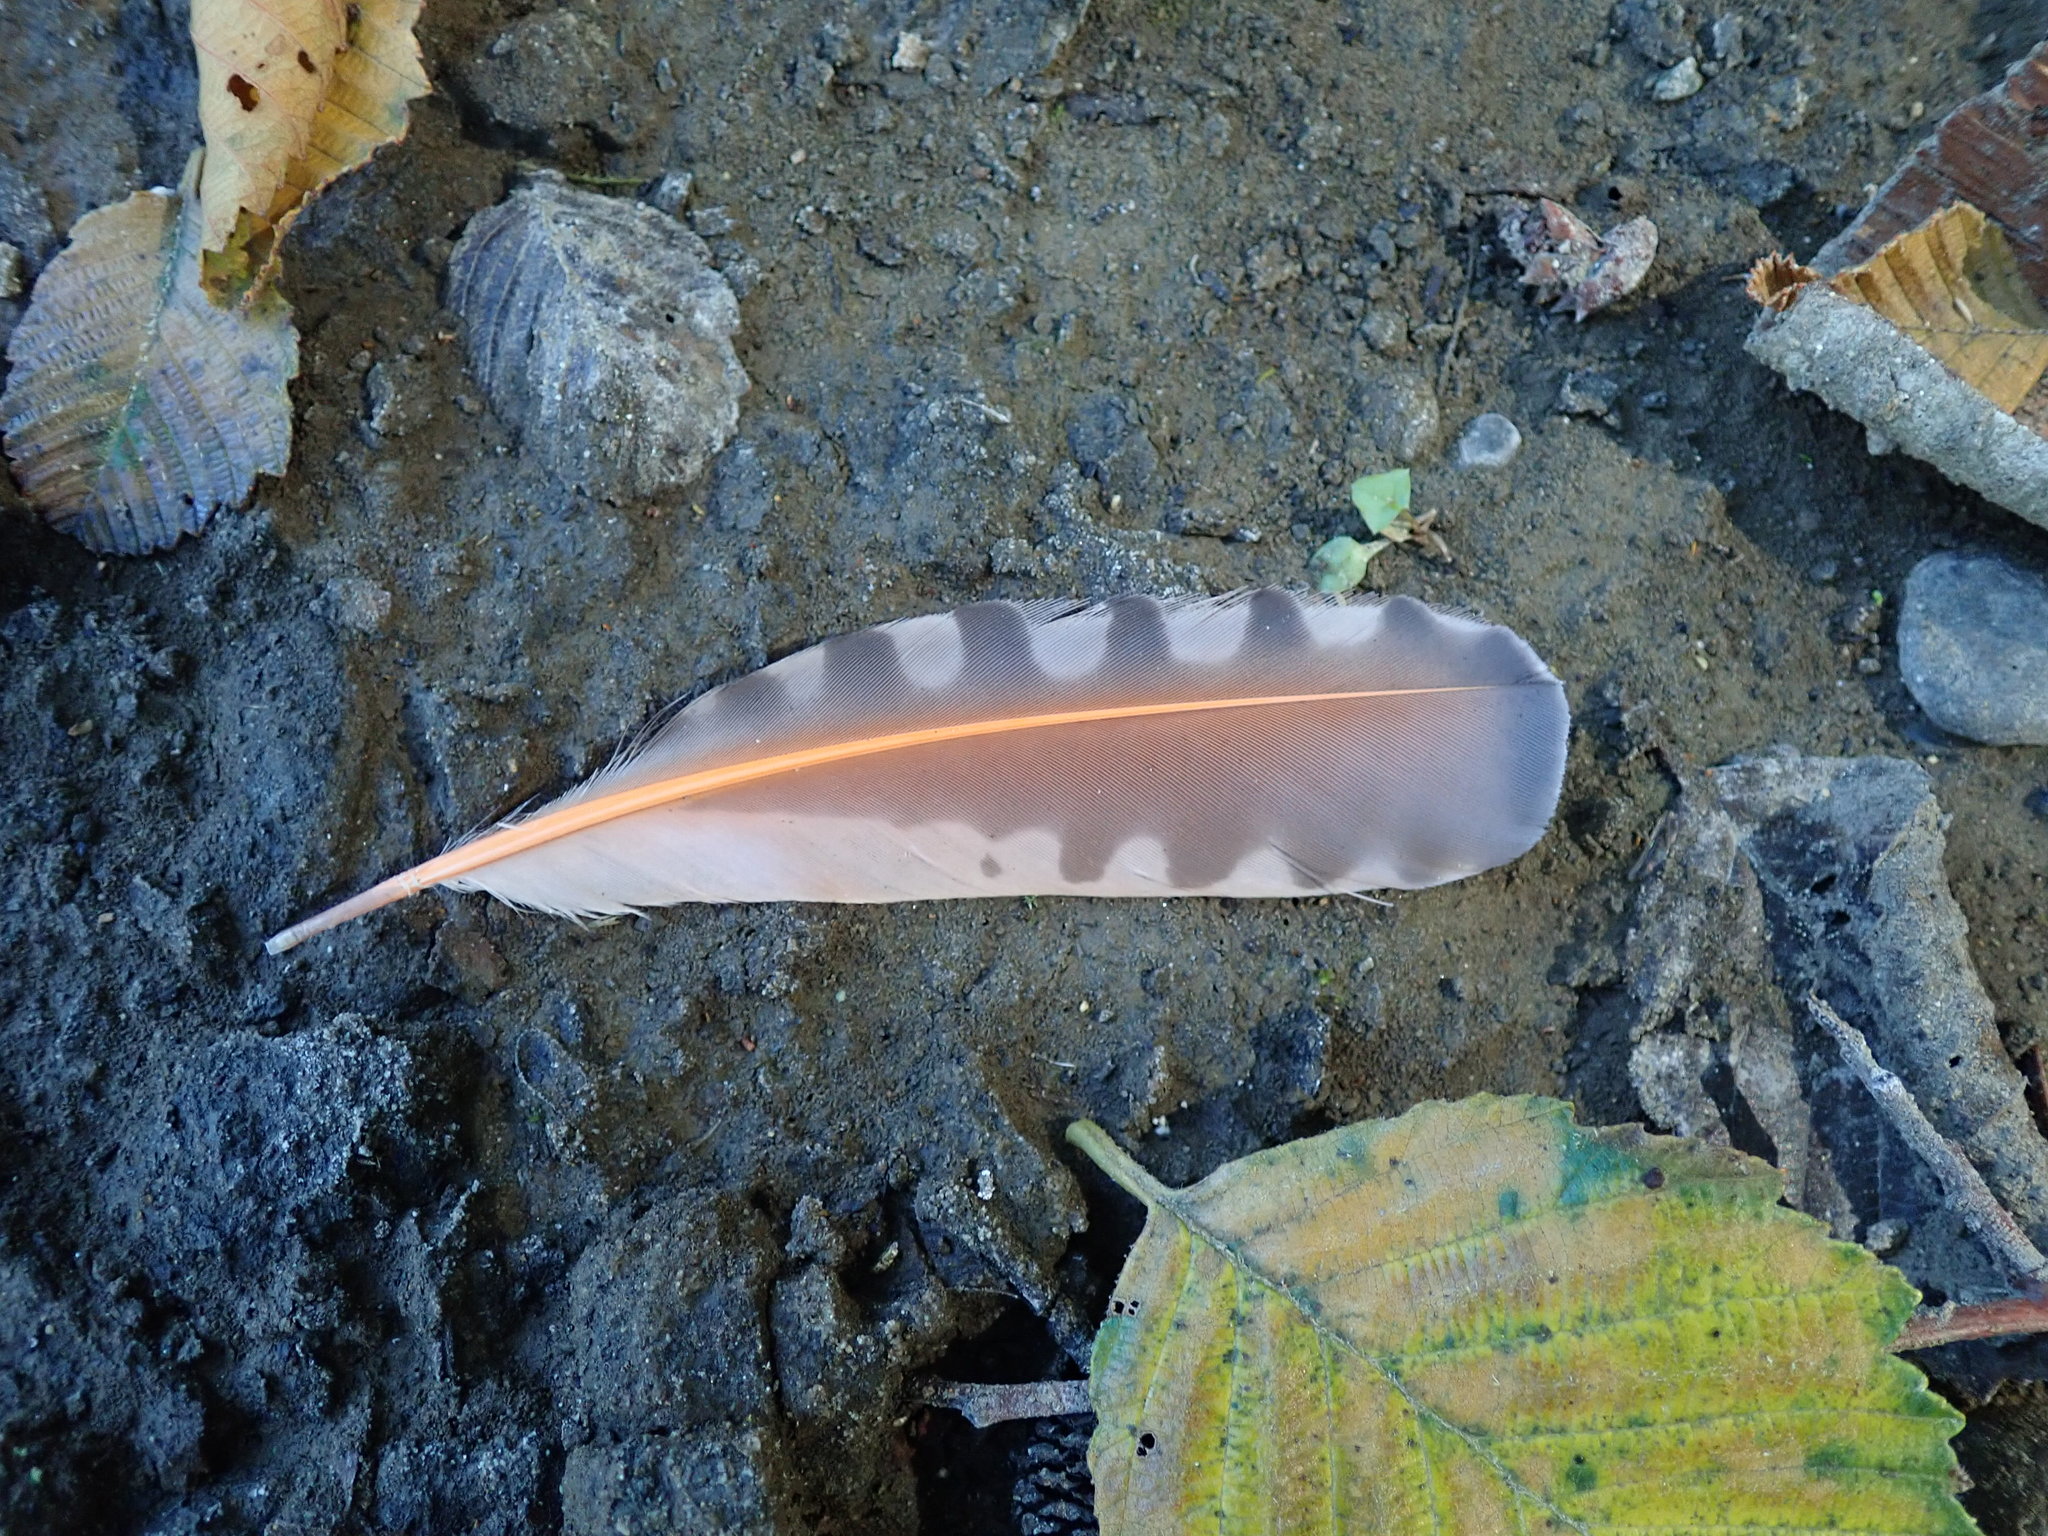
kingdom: Animalia
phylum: Chordata
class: Aves
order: Piciformes
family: Picidae
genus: Colaptes
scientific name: Colaptes auratus
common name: Northern flicker
